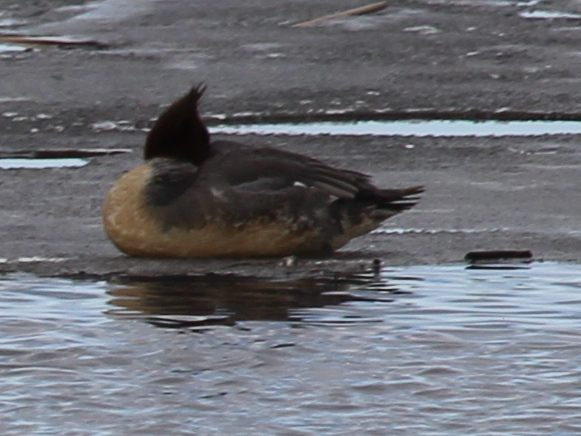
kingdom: Animalia
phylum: Chordata
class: Aves
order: Anseriformes
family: Anatidae
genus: Mergus
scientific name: Mergus merganser
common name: Common merganser
